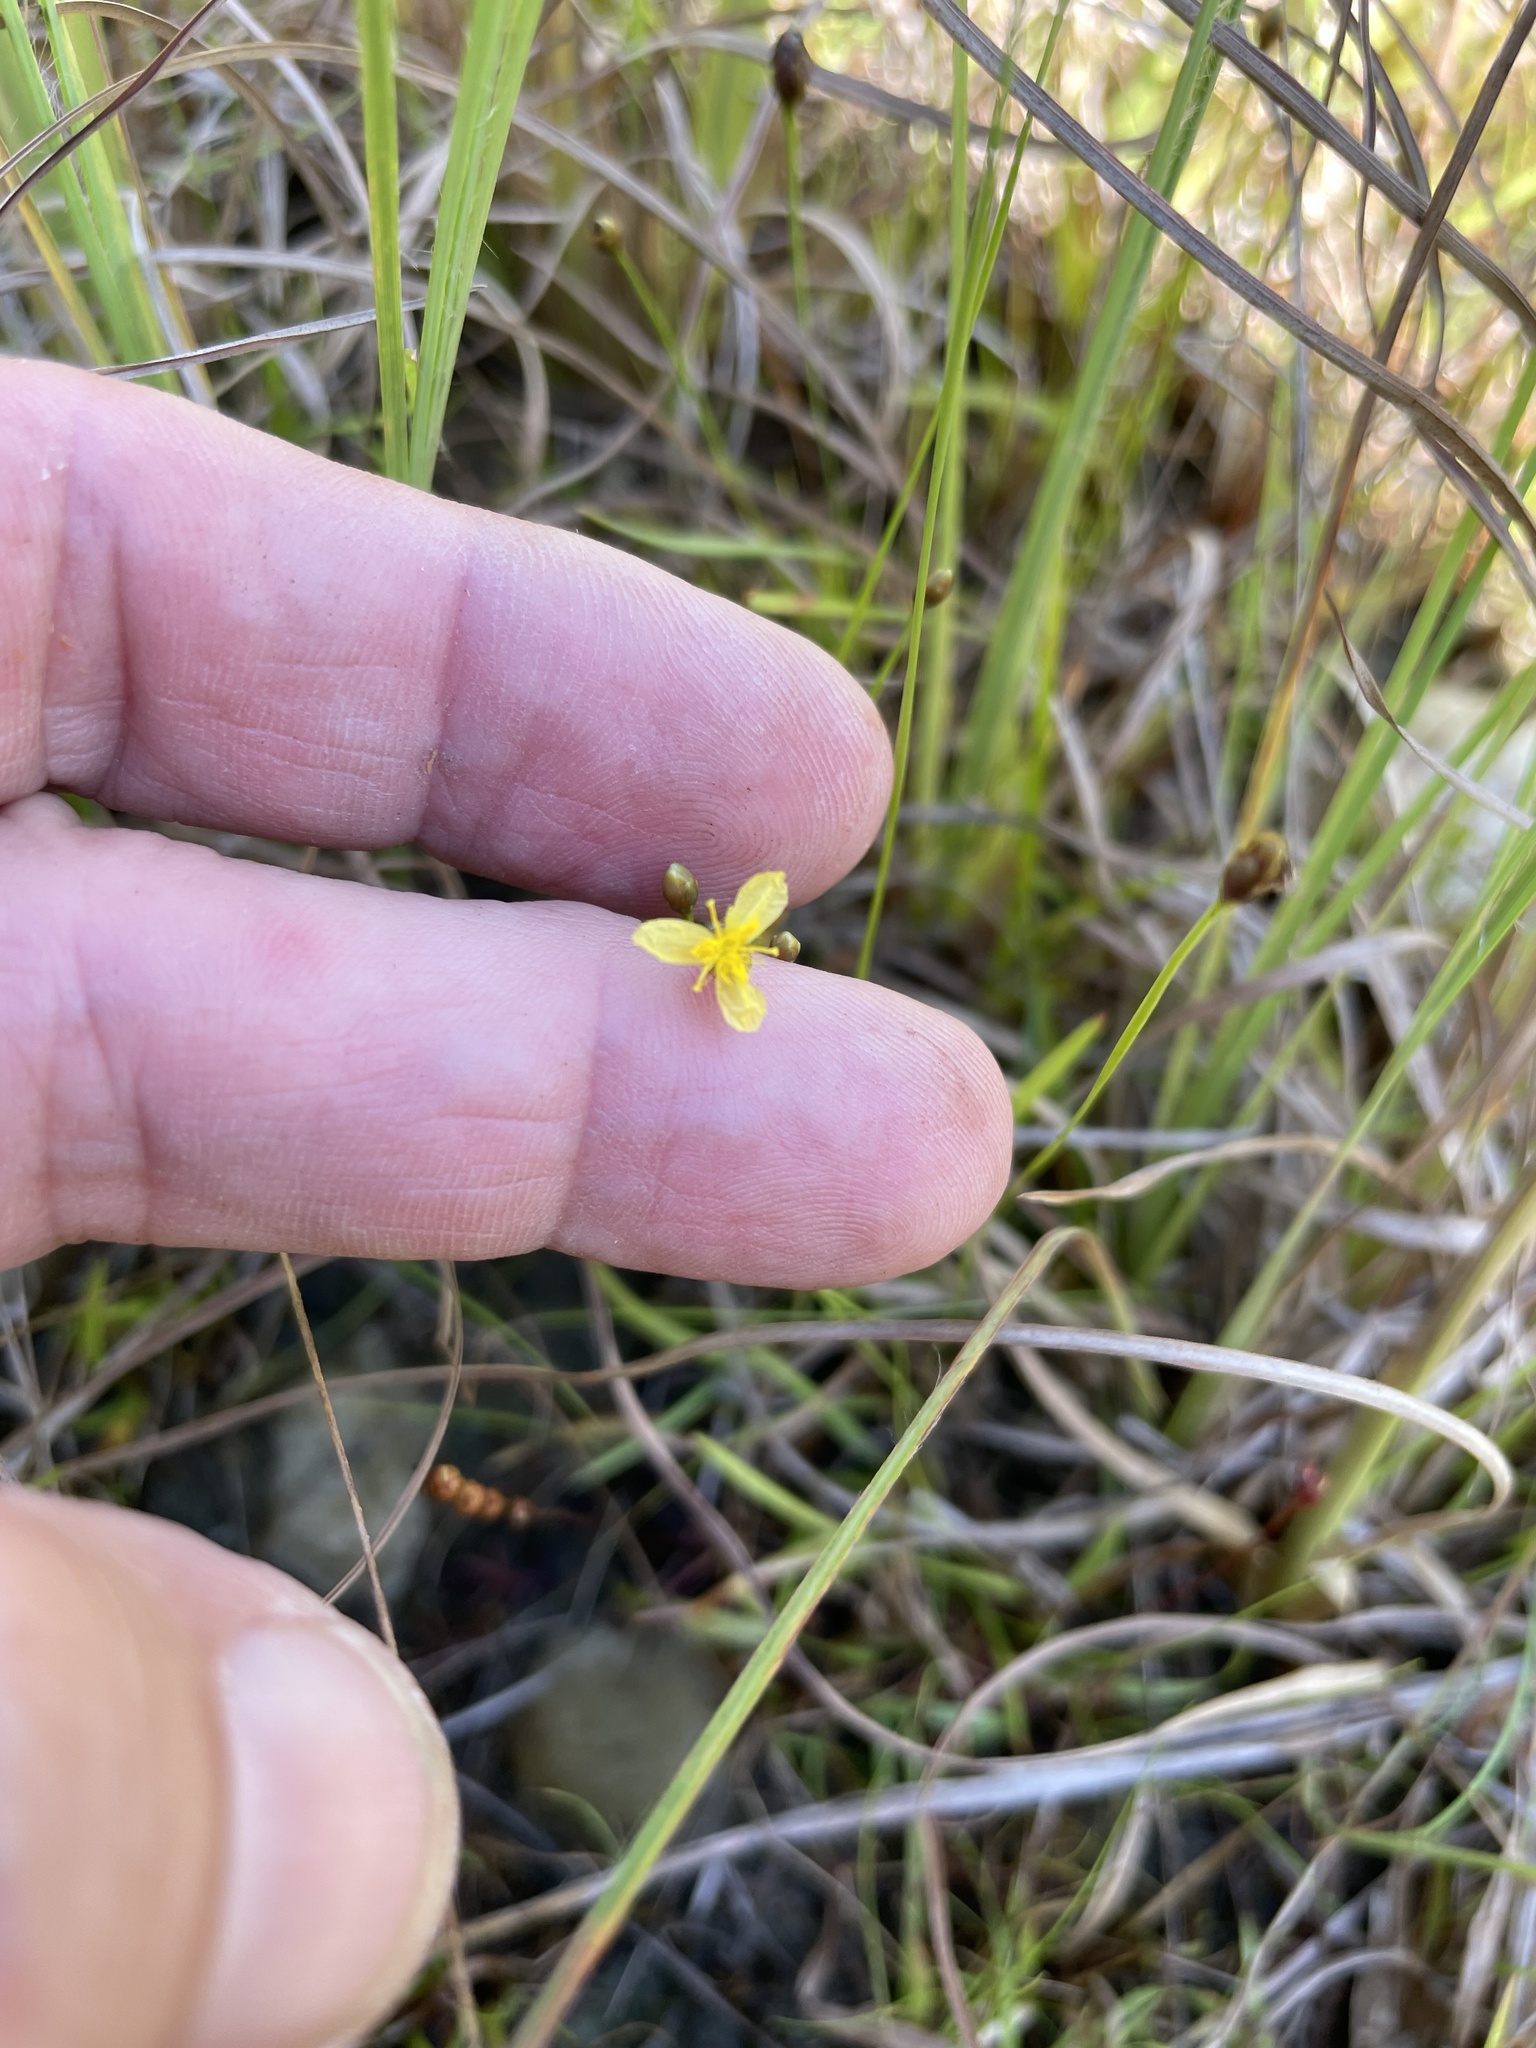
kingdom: Plantae
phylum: Tracheophyta
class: Liliopsida
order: Poales
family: Xyridaceae
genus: Xyris
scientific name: Xyris difformis
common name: Bog yellow-eyed-grass
